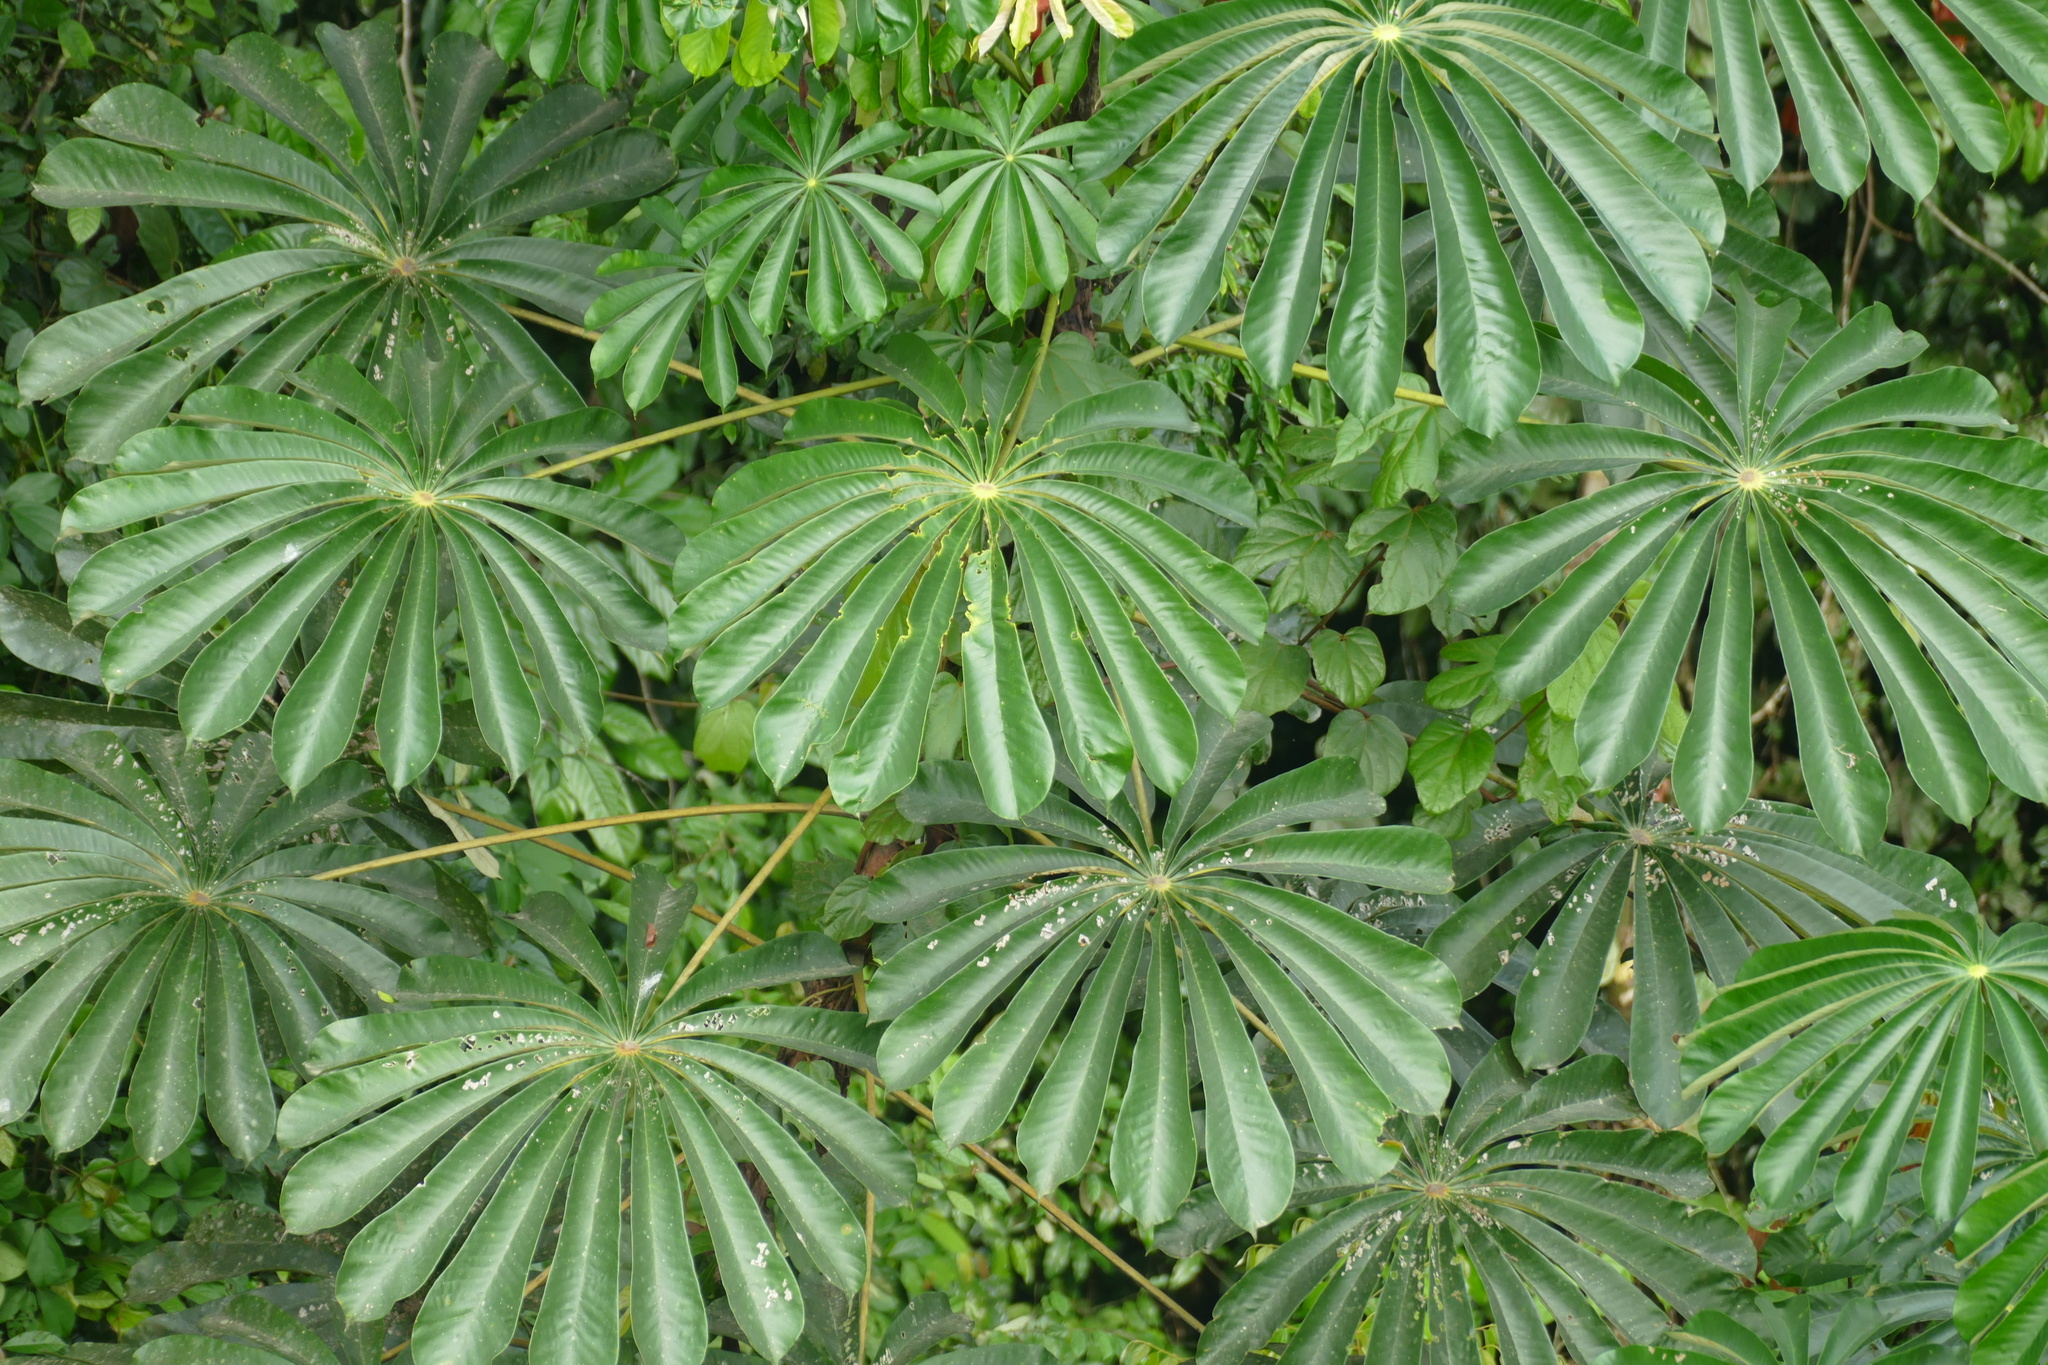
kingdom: Plantae
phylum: Tracheophyta
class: Magnoliopsida
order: Rosales
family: Urticaceae
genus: Musanga
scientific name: Musanga cecropioides
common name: African corkwood
